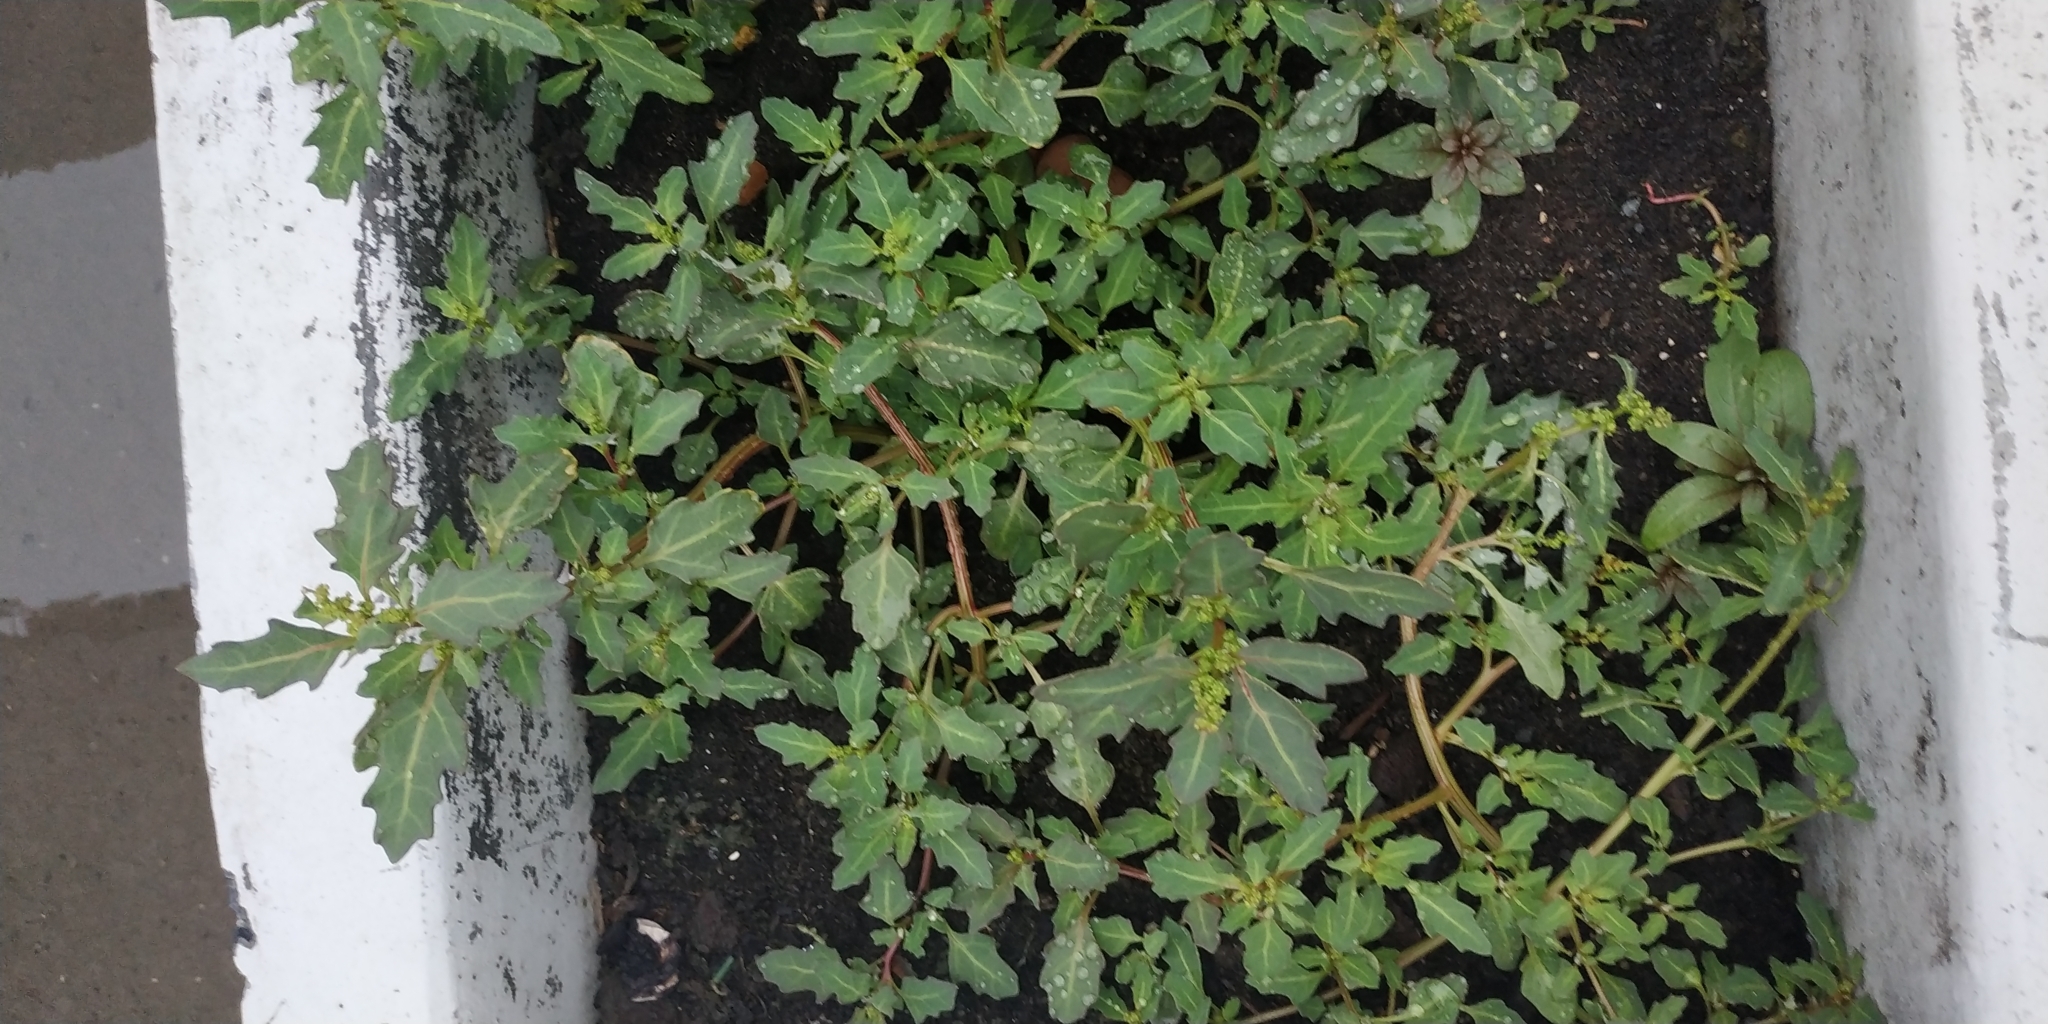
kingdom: Plantae
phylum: Tracheophyta
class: Magnoliopsida
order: Caryophyllales
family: Amaranthaceae
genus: Oxybasis
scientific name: Oxybasis glauca
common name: Glaucous goosefoot
